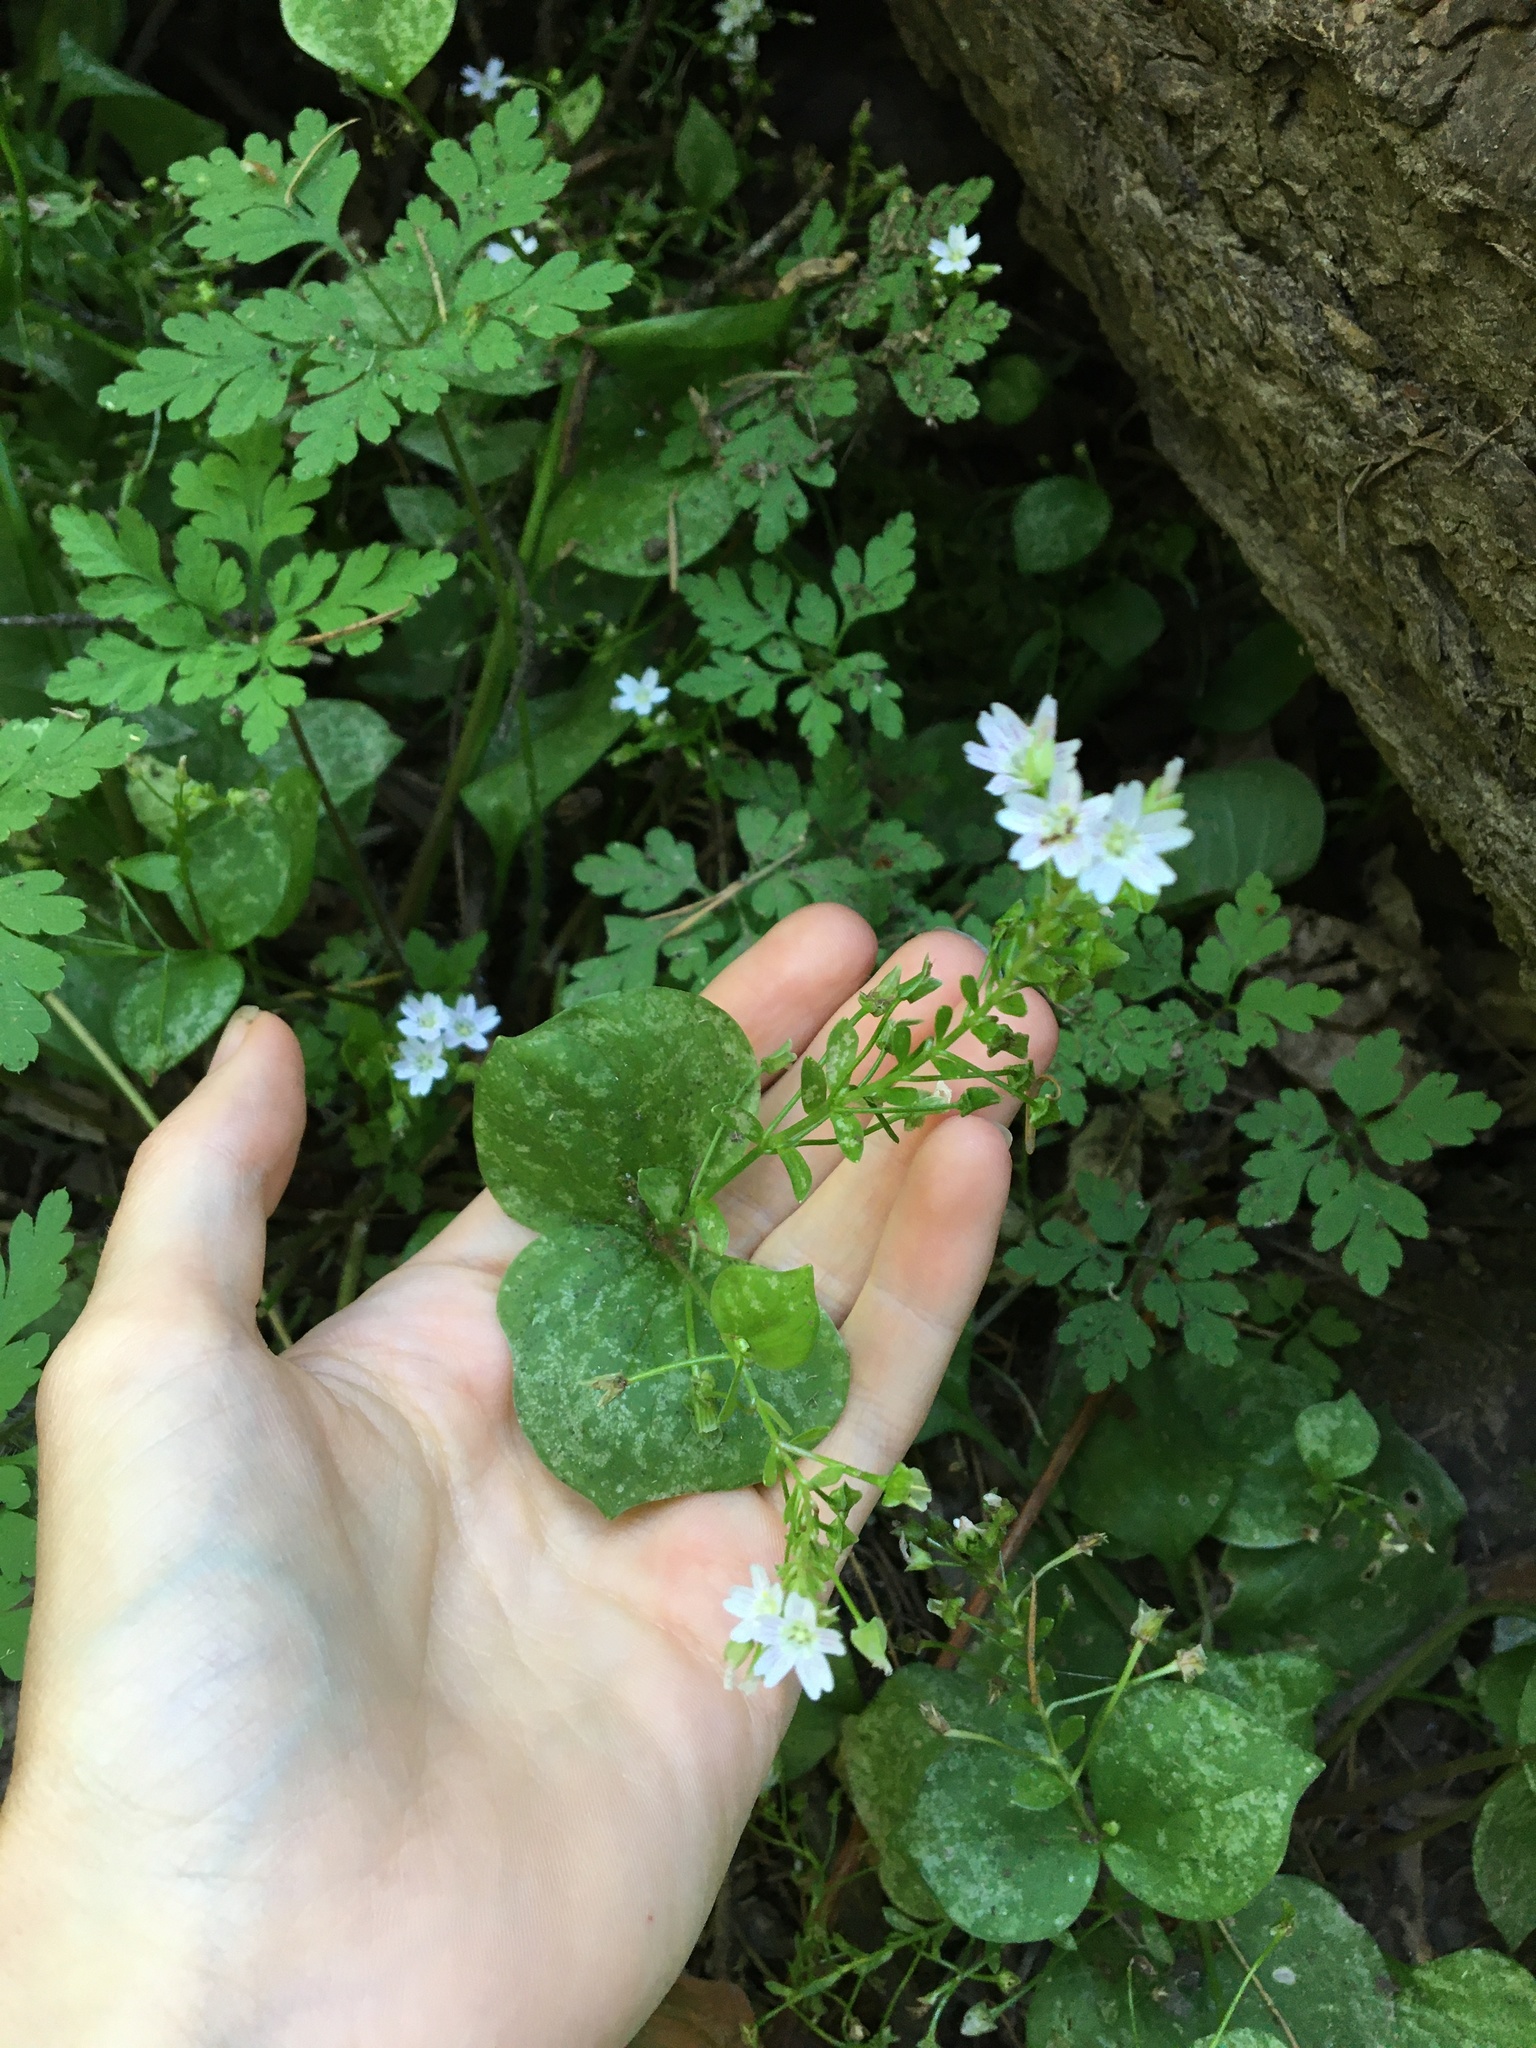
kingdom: Plantae
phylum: Tracheophyta
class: Magnoliopsida
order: Caryophyllales
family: Montiaceae
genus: Claytonia
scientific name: Claytonia sibirica
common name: Pink purslane
